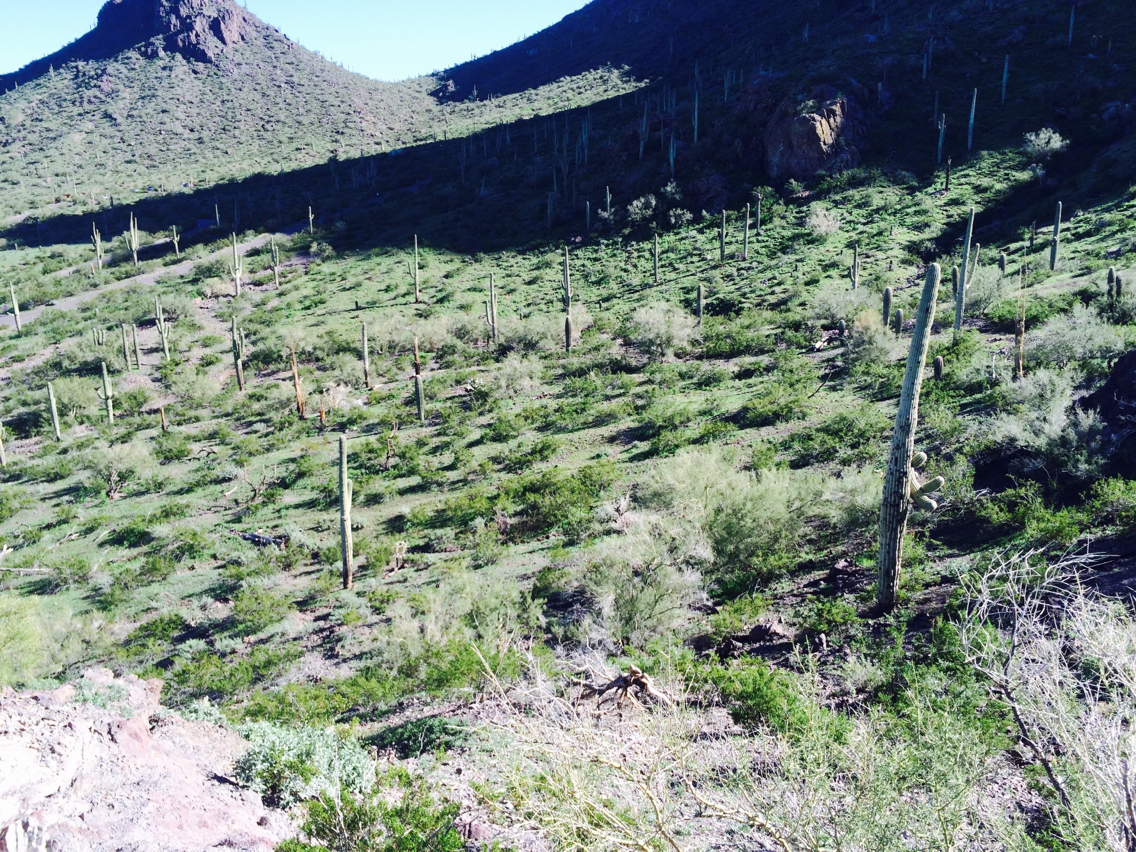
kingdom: Plantae
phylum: Tracheophyta
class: Magnoliopsida
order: Caryophyllales
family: Cactaceae
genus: Carnegiea
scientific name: Carnegiea gigantea
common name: Saguaro
